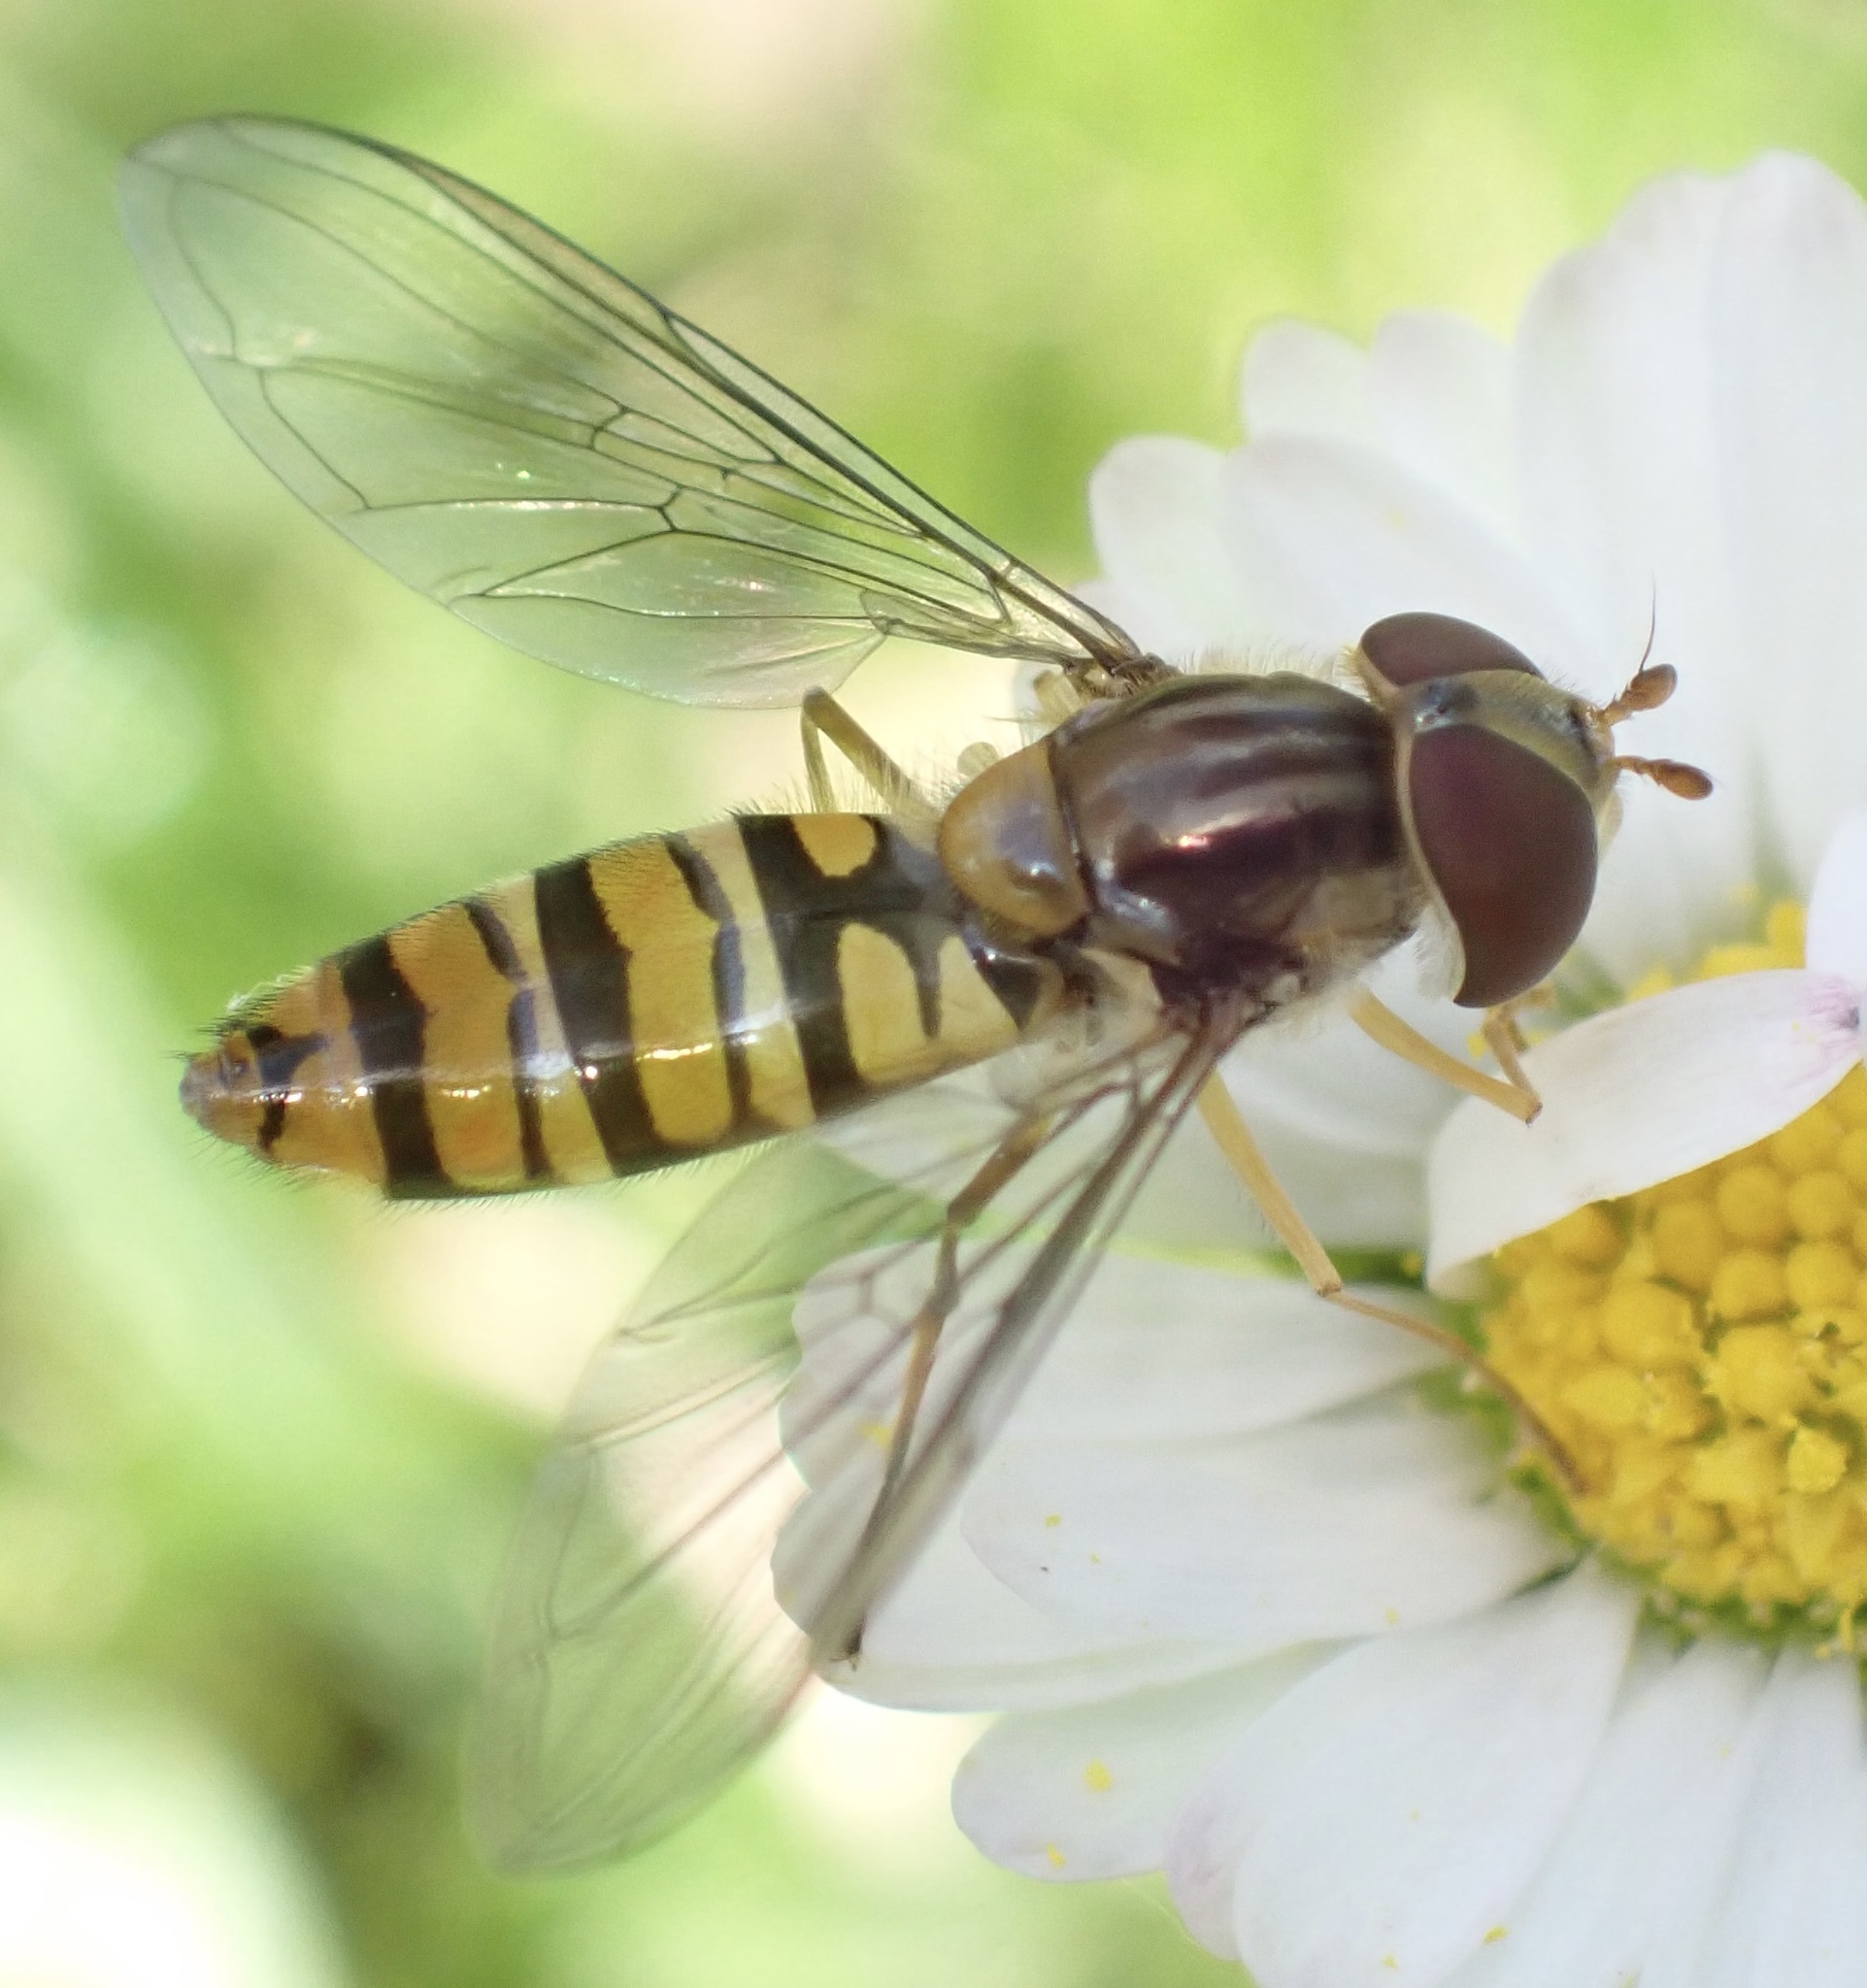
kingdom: Animalia
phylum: Arthropoda
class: Insecta
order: Diptera
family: Syrphidae
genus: Episyrphus
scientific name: Episyrphus balteatus
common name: Marmalade hoverfly
